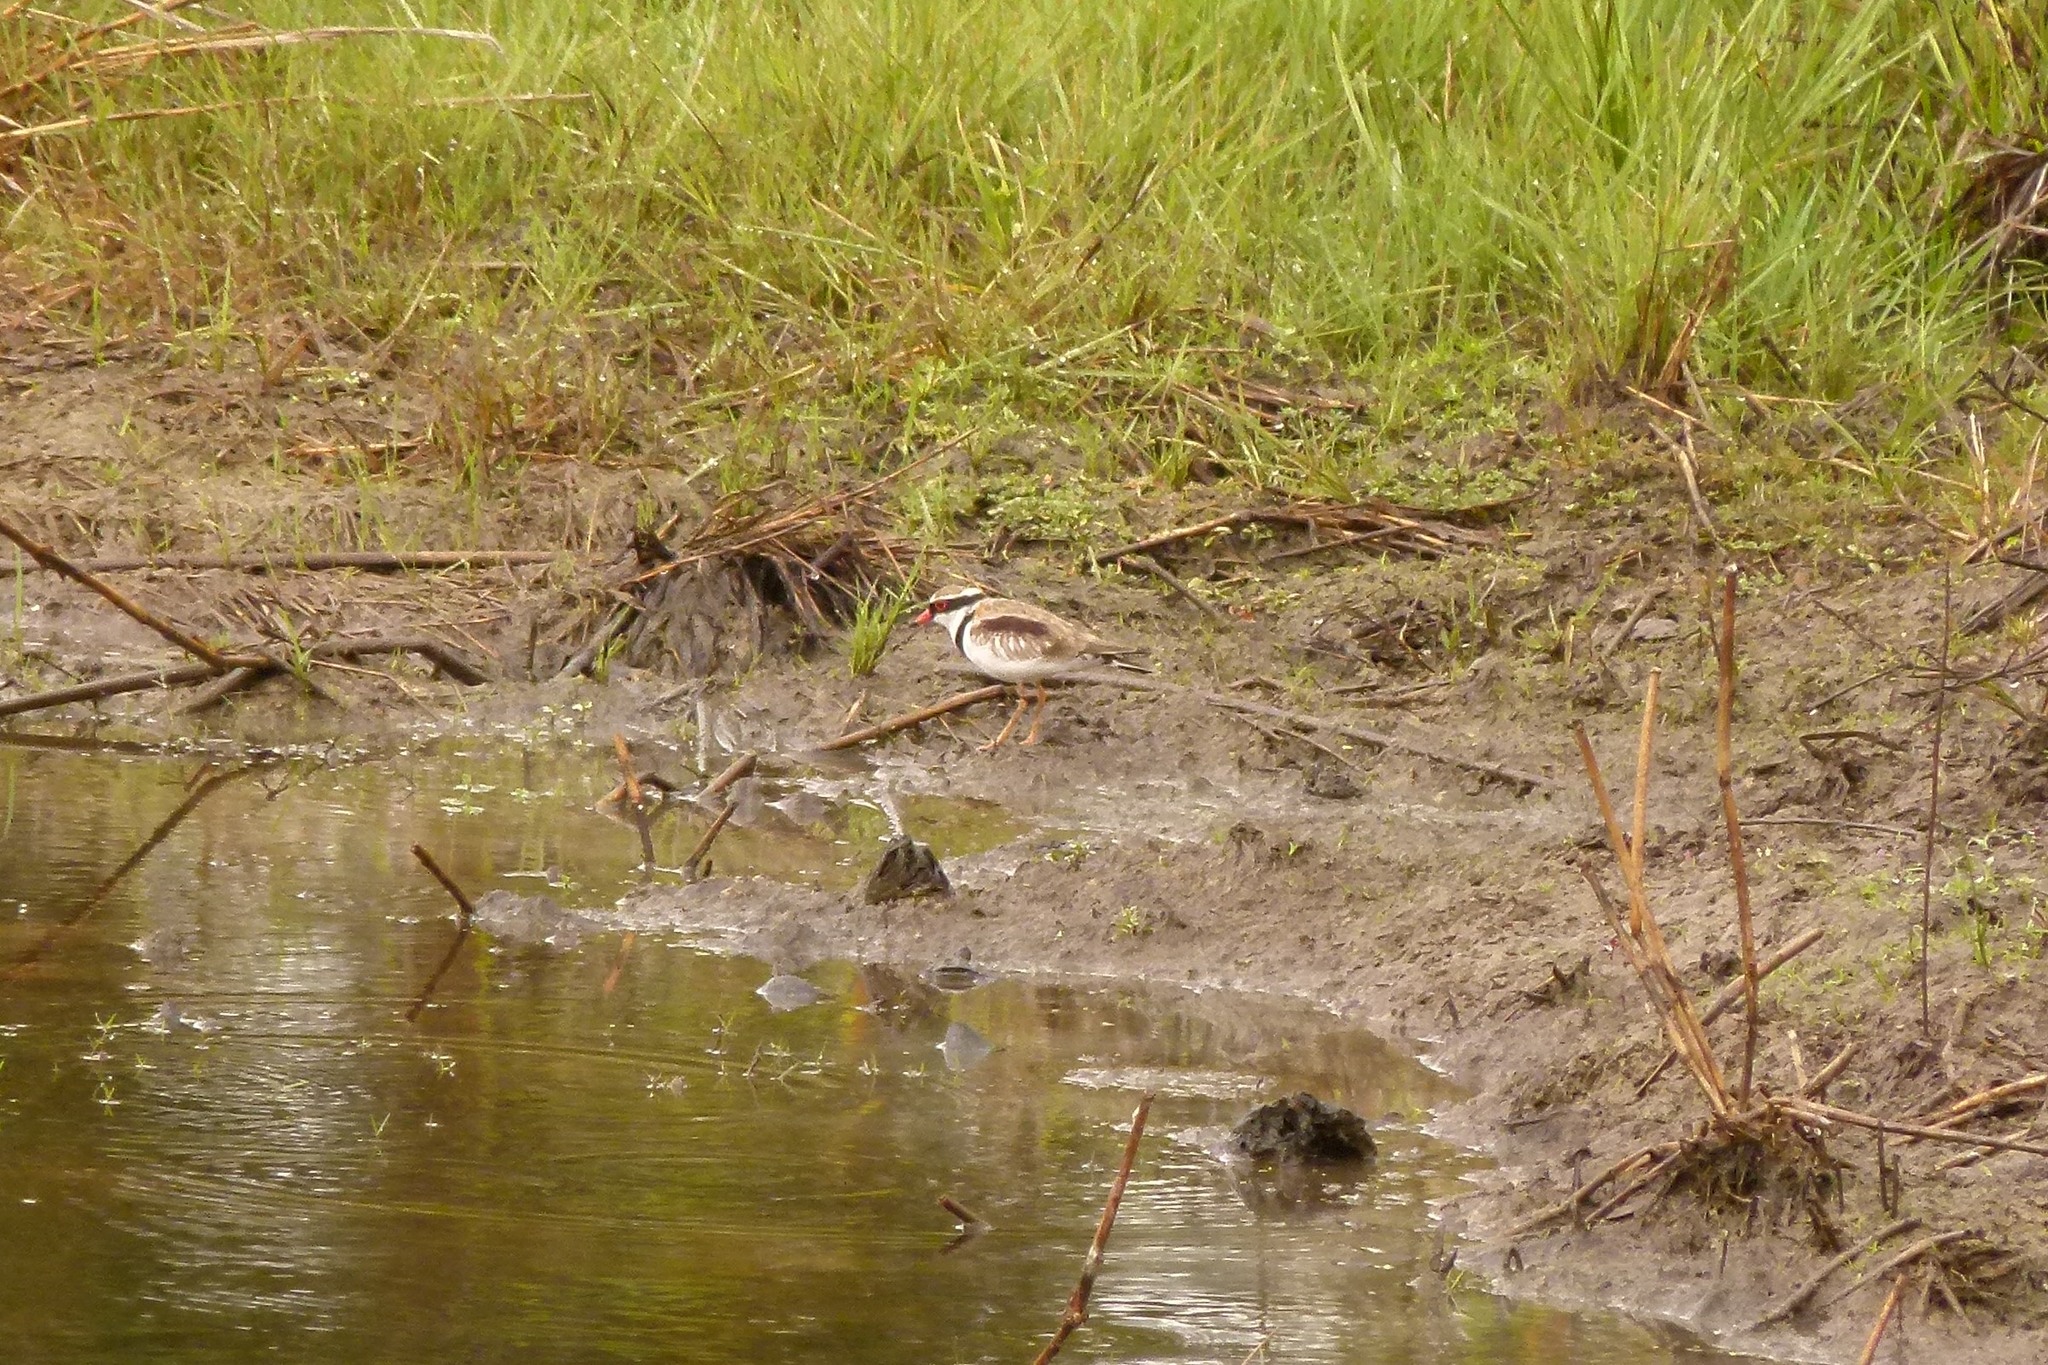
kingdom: Animalia
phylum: Chordata
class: Aves
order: Charadriiformes
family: Charadriidae
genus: Elseyornis
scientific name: Elseyornis melanops
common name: Black-fronted dotterel
